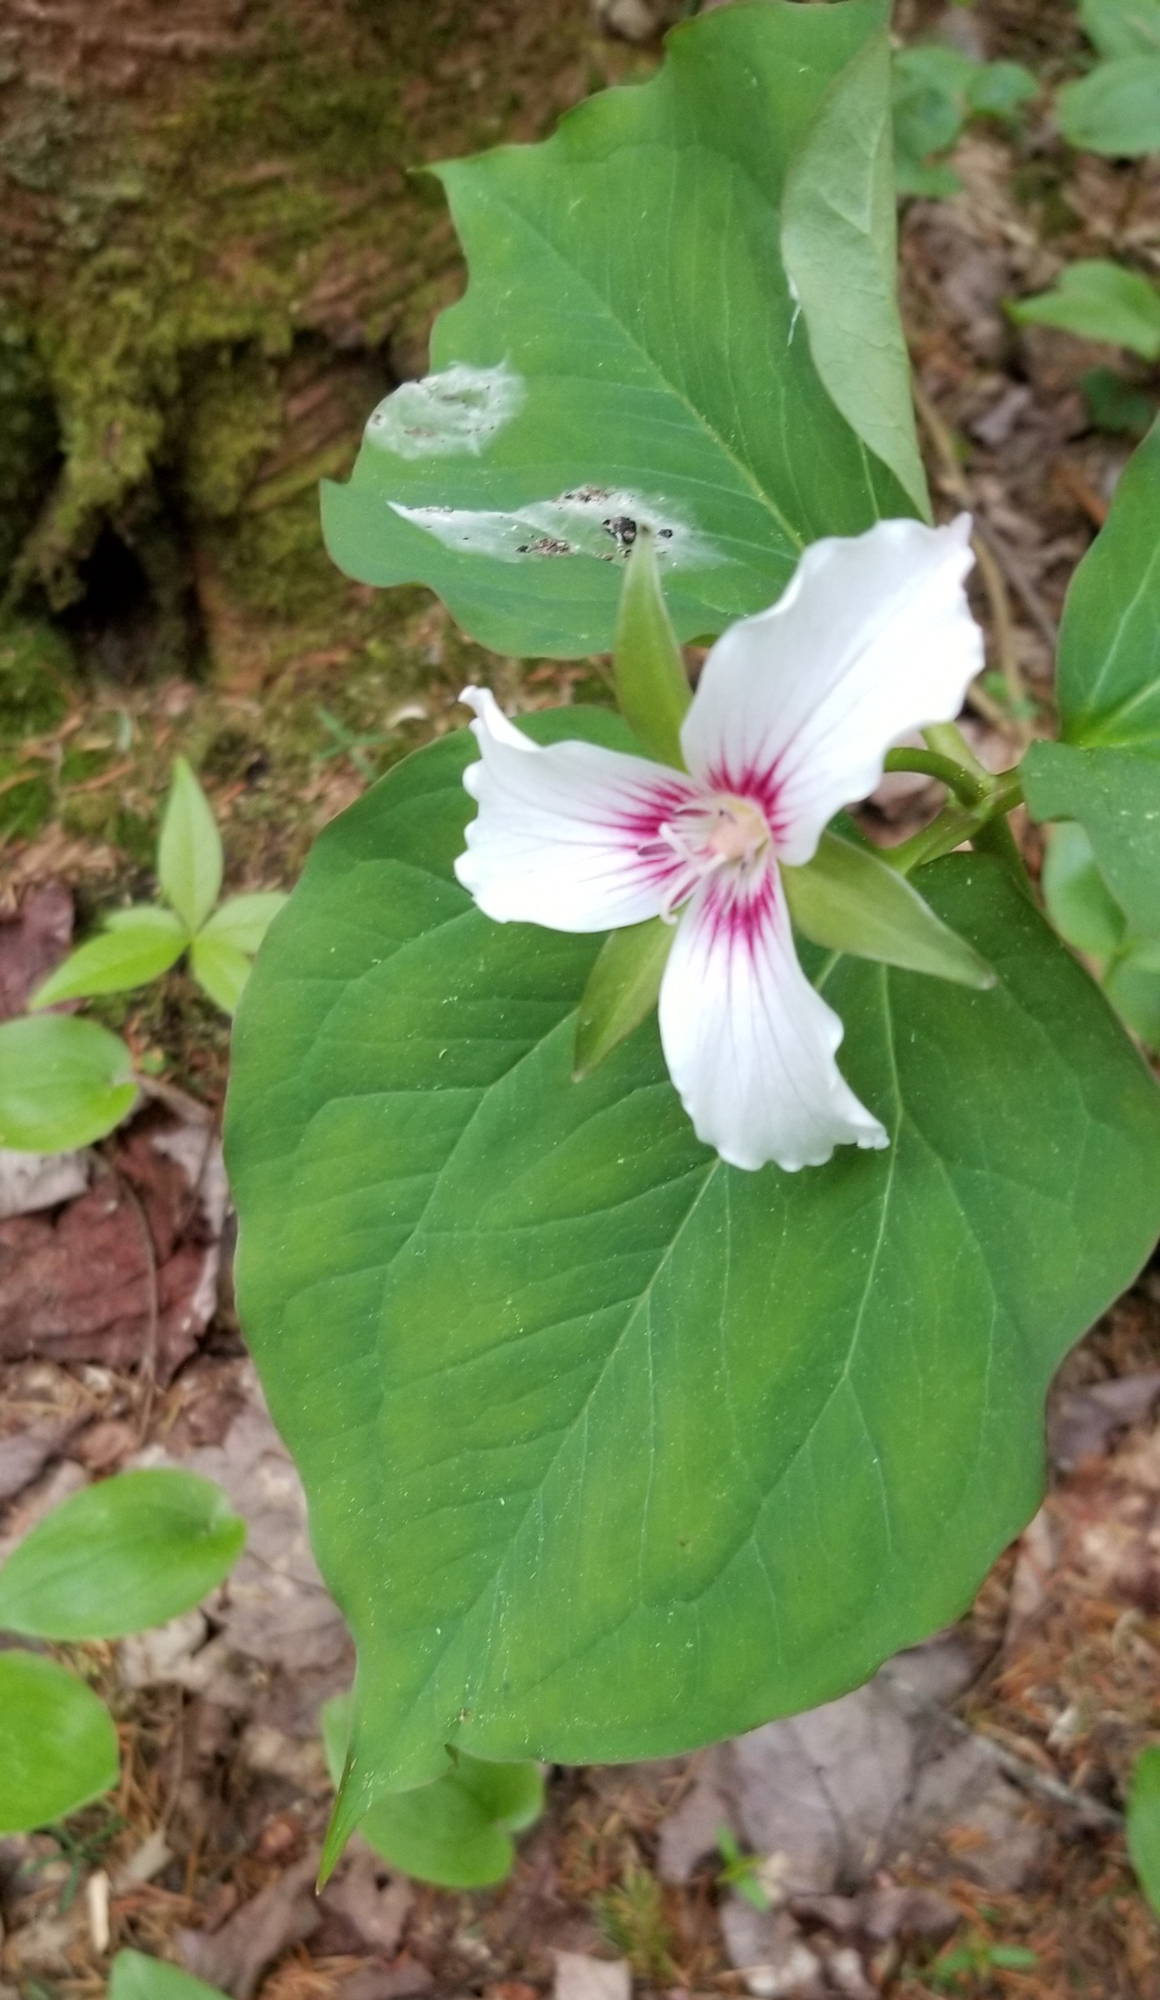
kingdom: Plantae
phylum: Tracheophyta
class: Liliopsida
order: Liliales
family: Melanthiaceae
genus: Trillium
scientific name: Trillium undulatum
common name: Paint trillium
